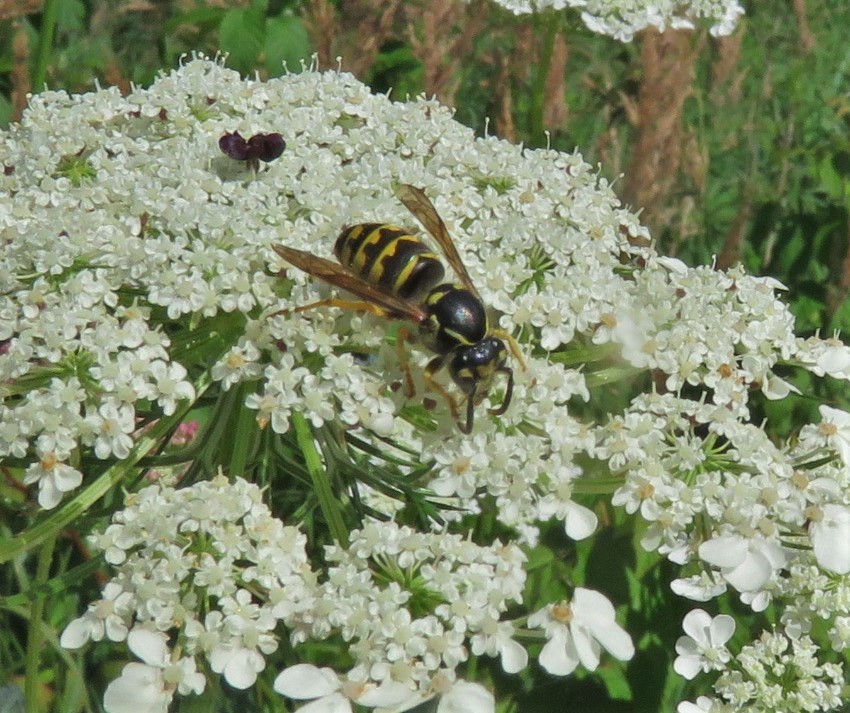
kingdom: Animalia
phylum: Arthropoda
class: Insecta
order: Hymenoptera
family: Vespidae
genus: Dolichovespula
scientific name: Dolichovespula arenaria
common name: Aerial yellowjacket
